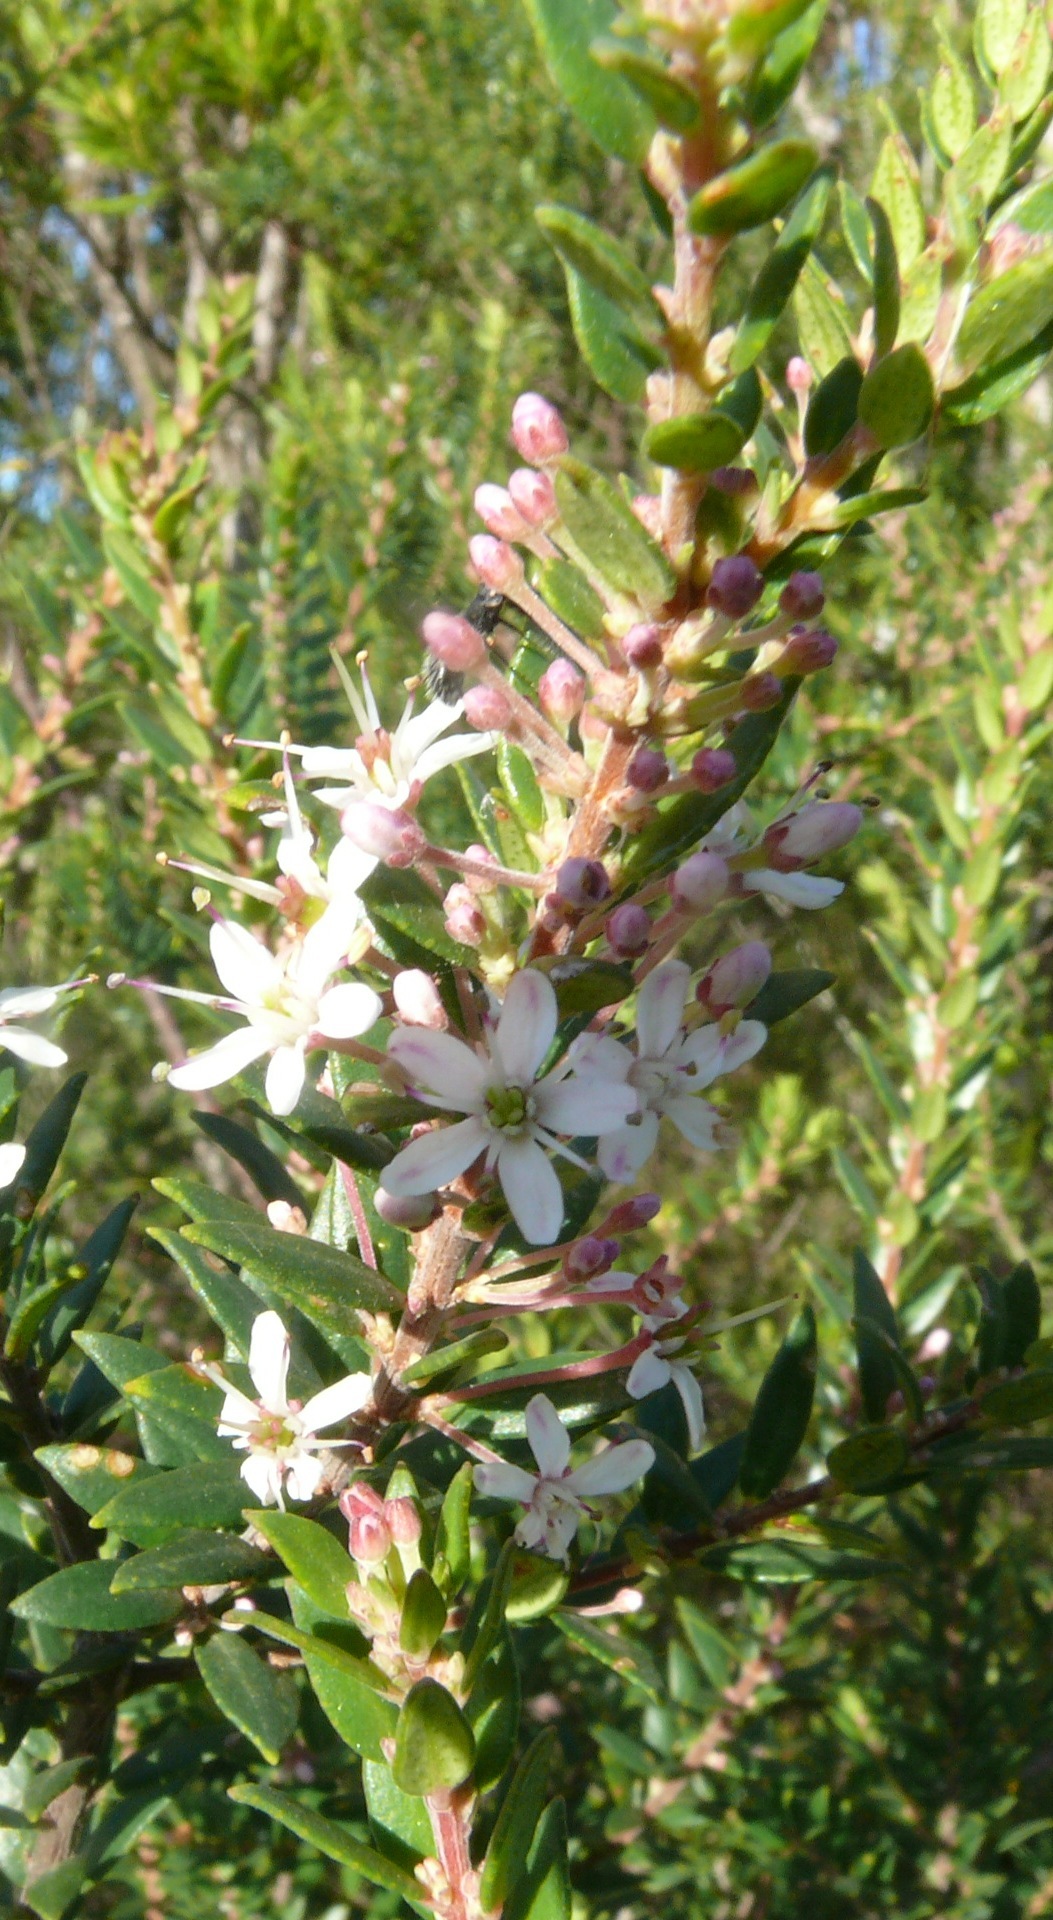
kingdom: Plantae
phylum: Tracheophyta
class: Magnoliopsida
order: Sapindales
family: Rutaceae
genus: Agathosma
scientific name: Agathosma ovata
